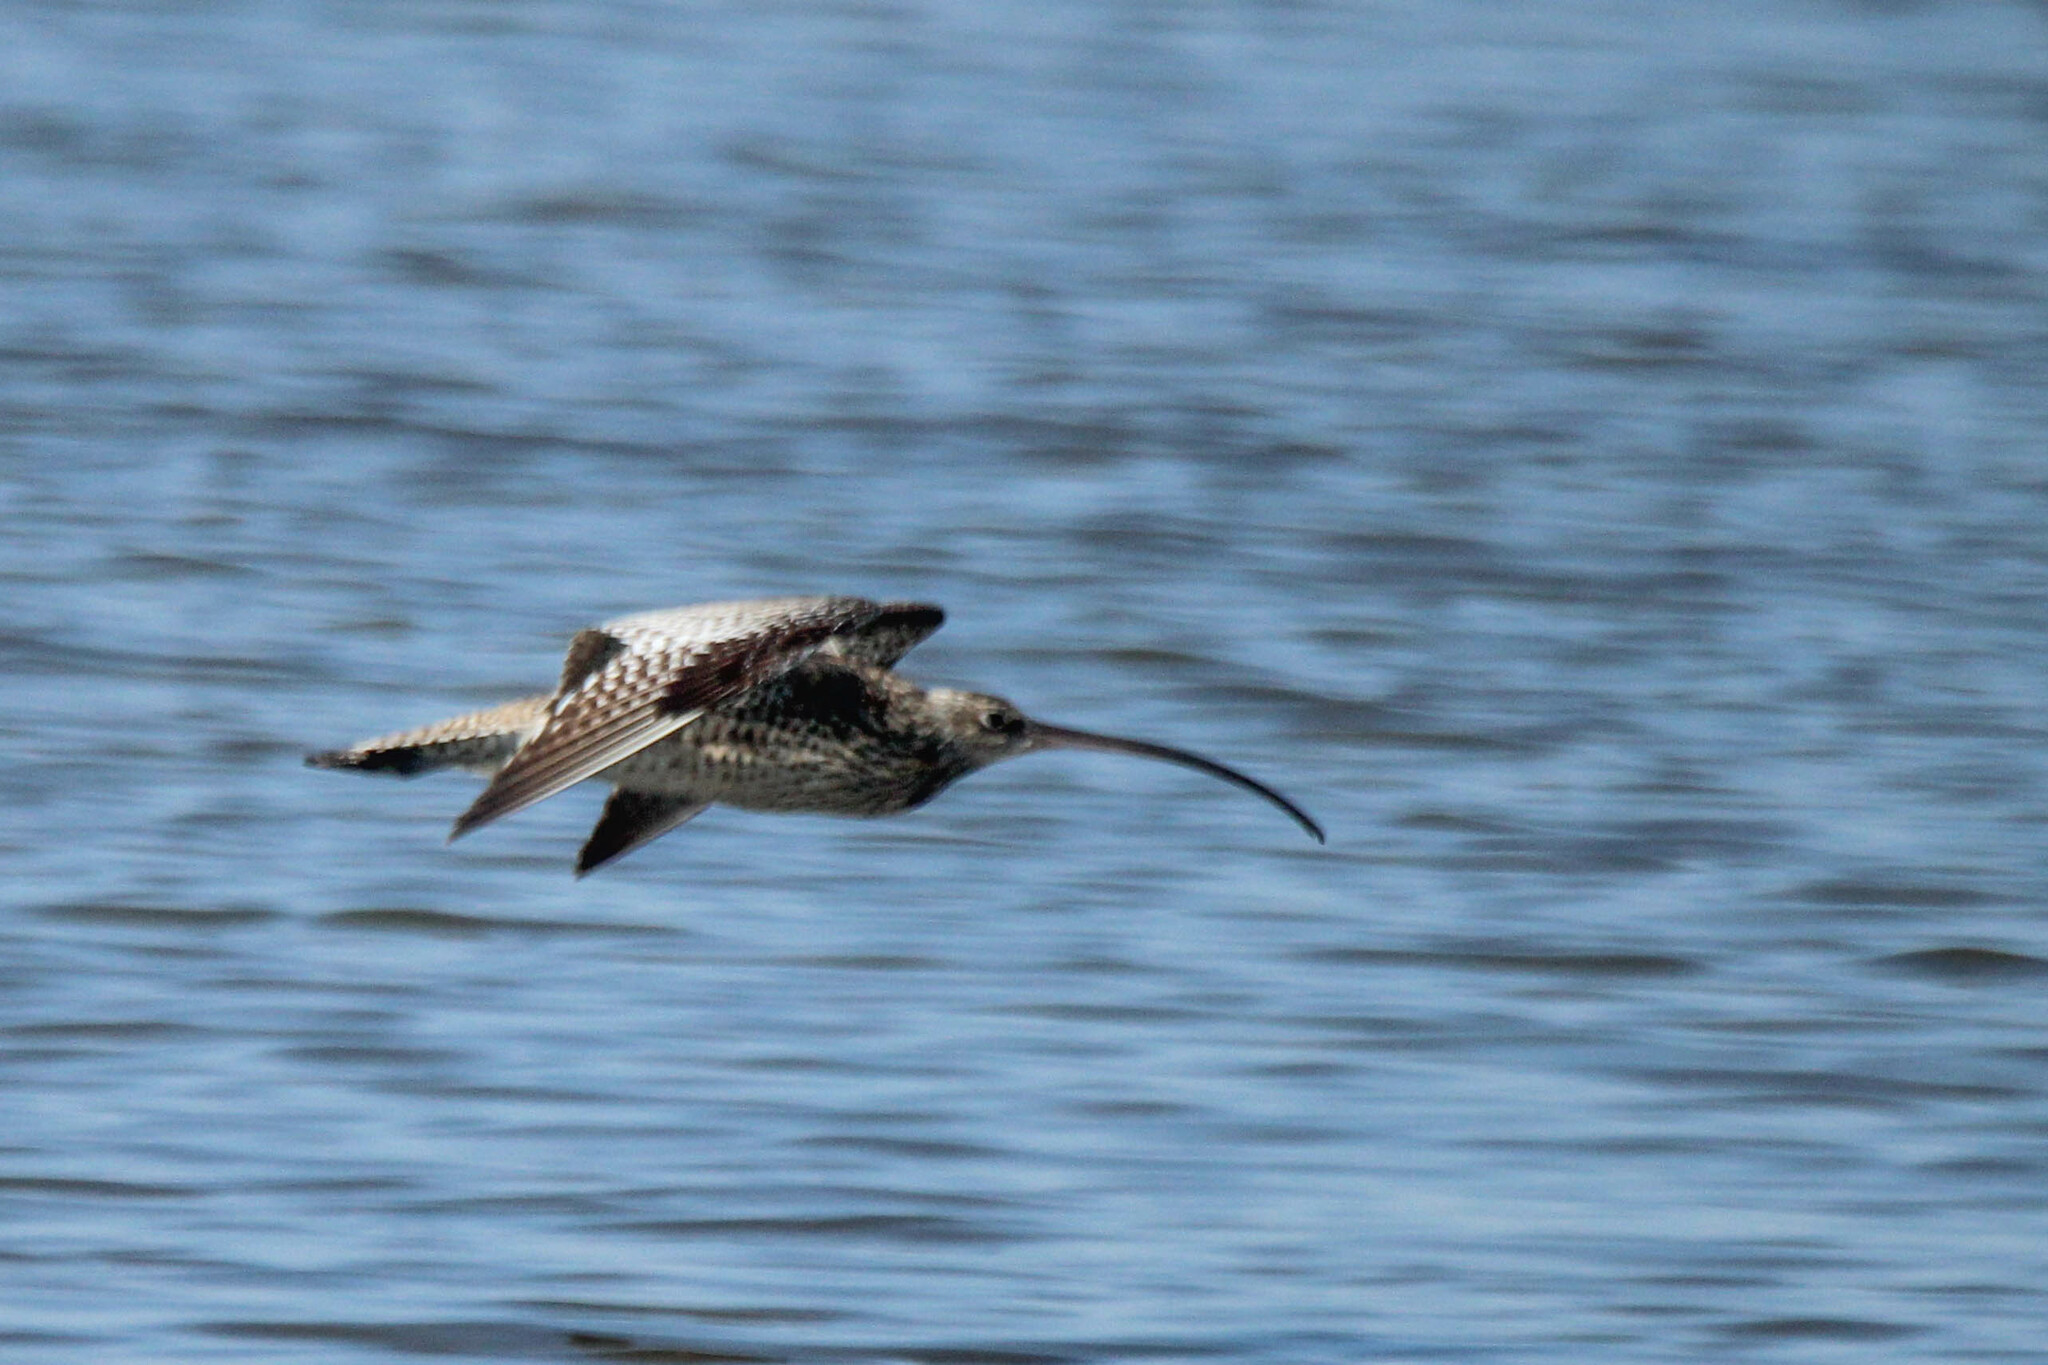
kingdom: Animalia
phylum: Chordata
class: Aves
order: Charadriiformes
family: Scolopacidae
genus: Numenius
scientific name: Numenius madagascariensis
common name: Far eastern curlew
